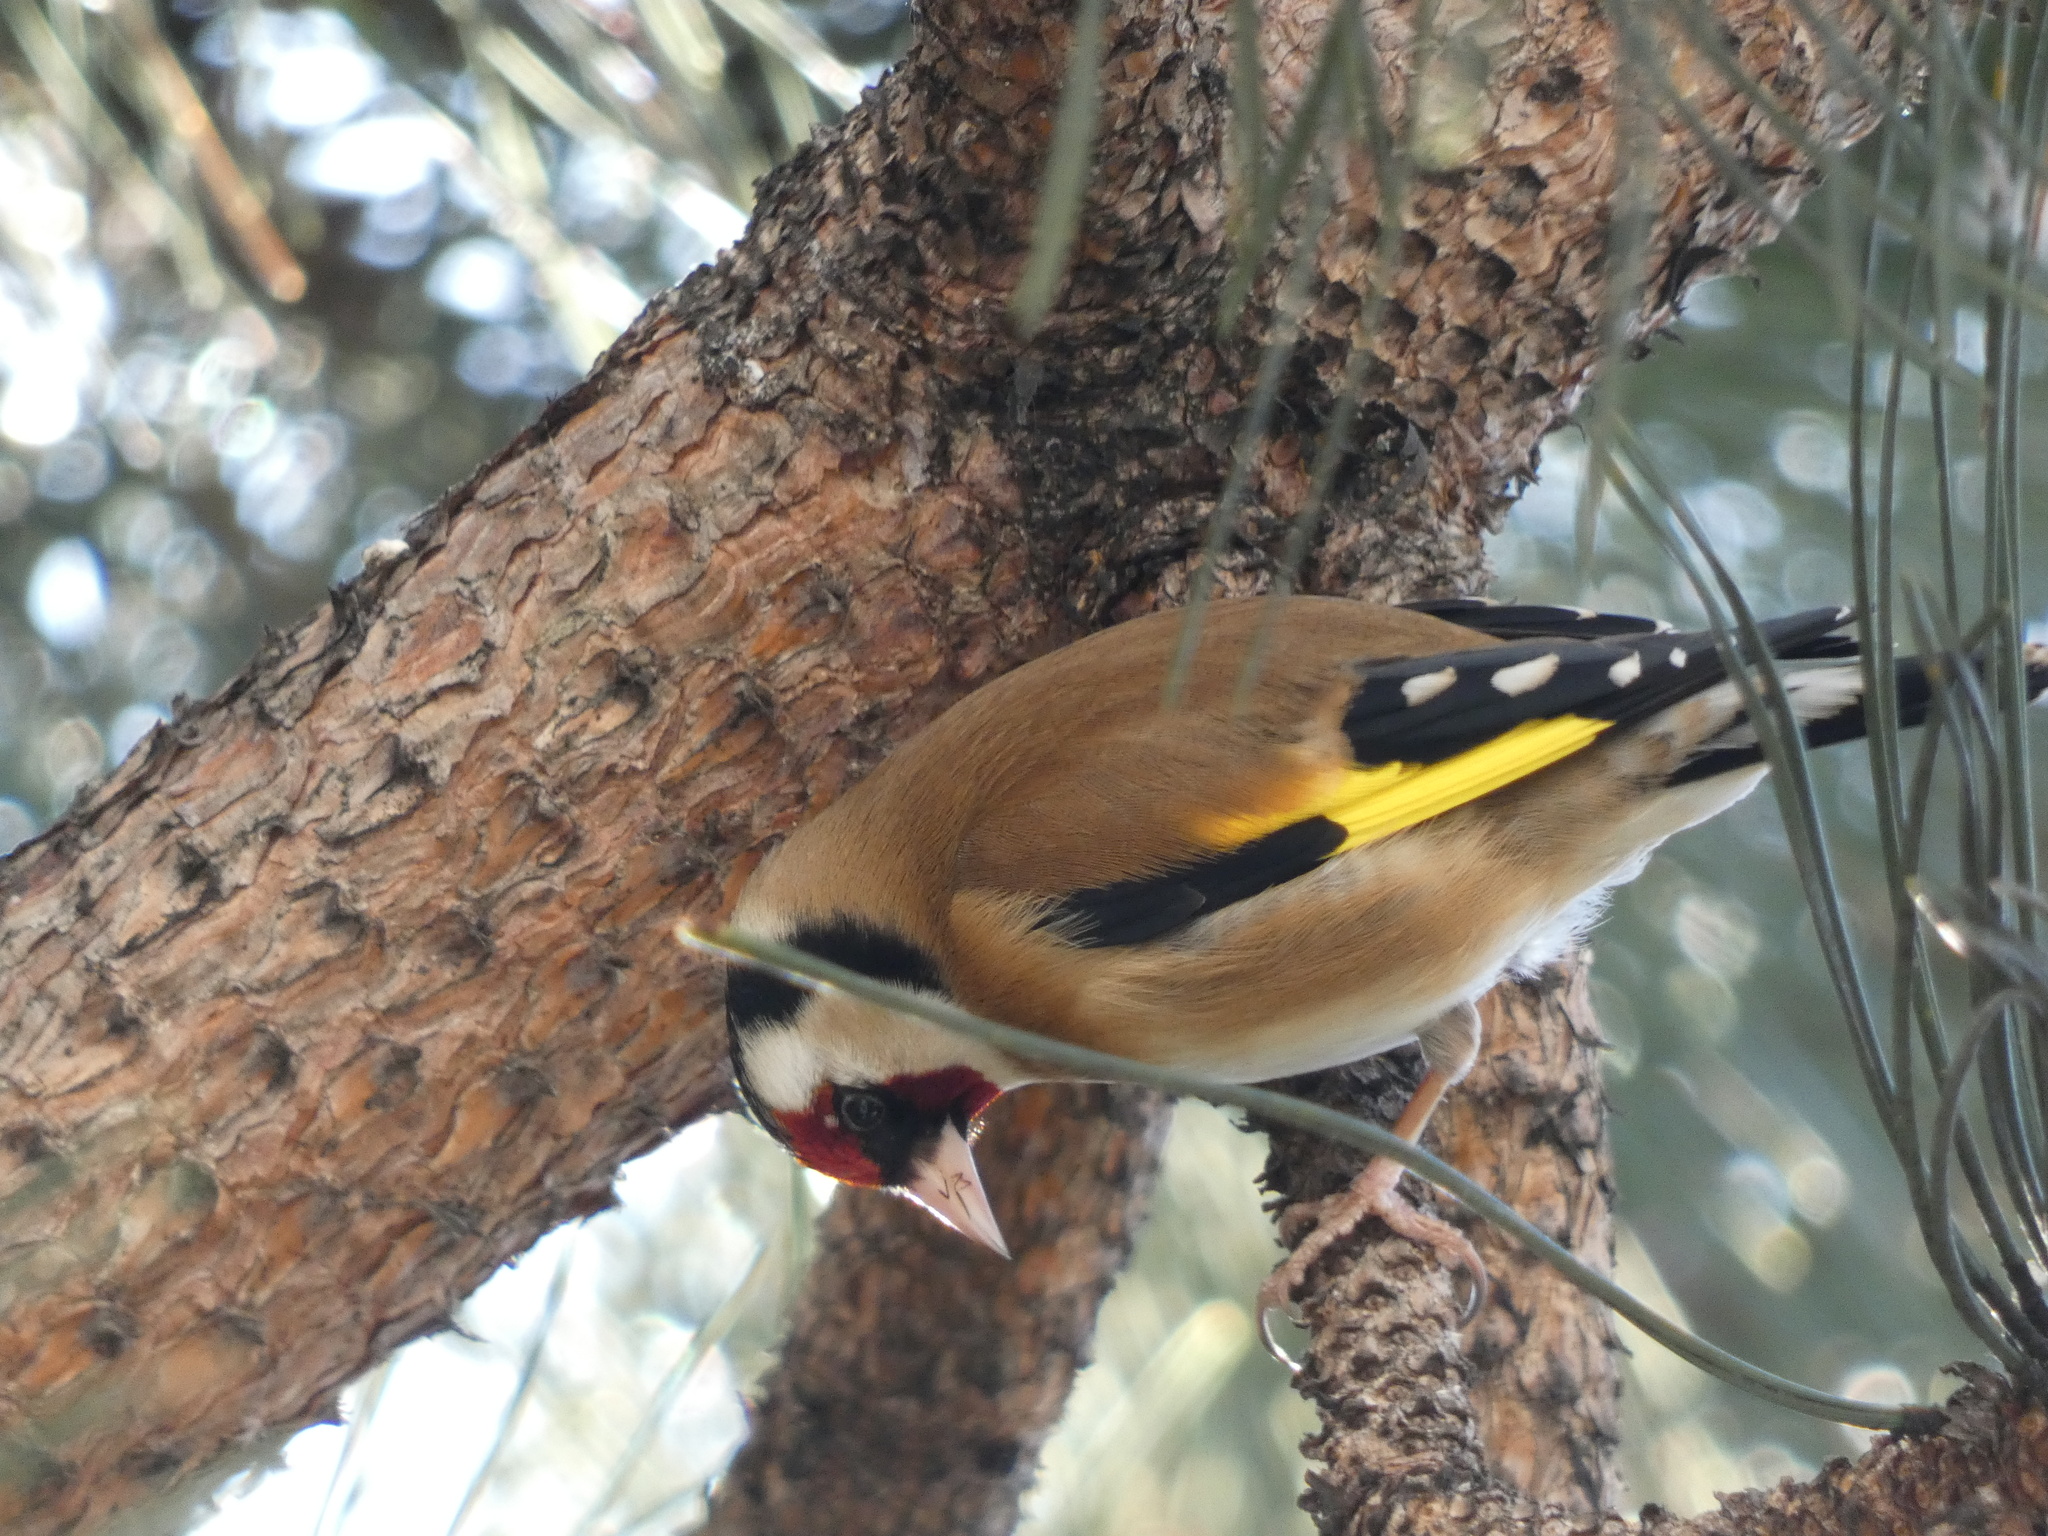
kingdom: Animalia
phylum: Chordata
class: Aves
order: Passeriformes
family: Fringillidae
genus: Carduelis
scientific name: Carduelis carduelis
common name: European goldfinch
